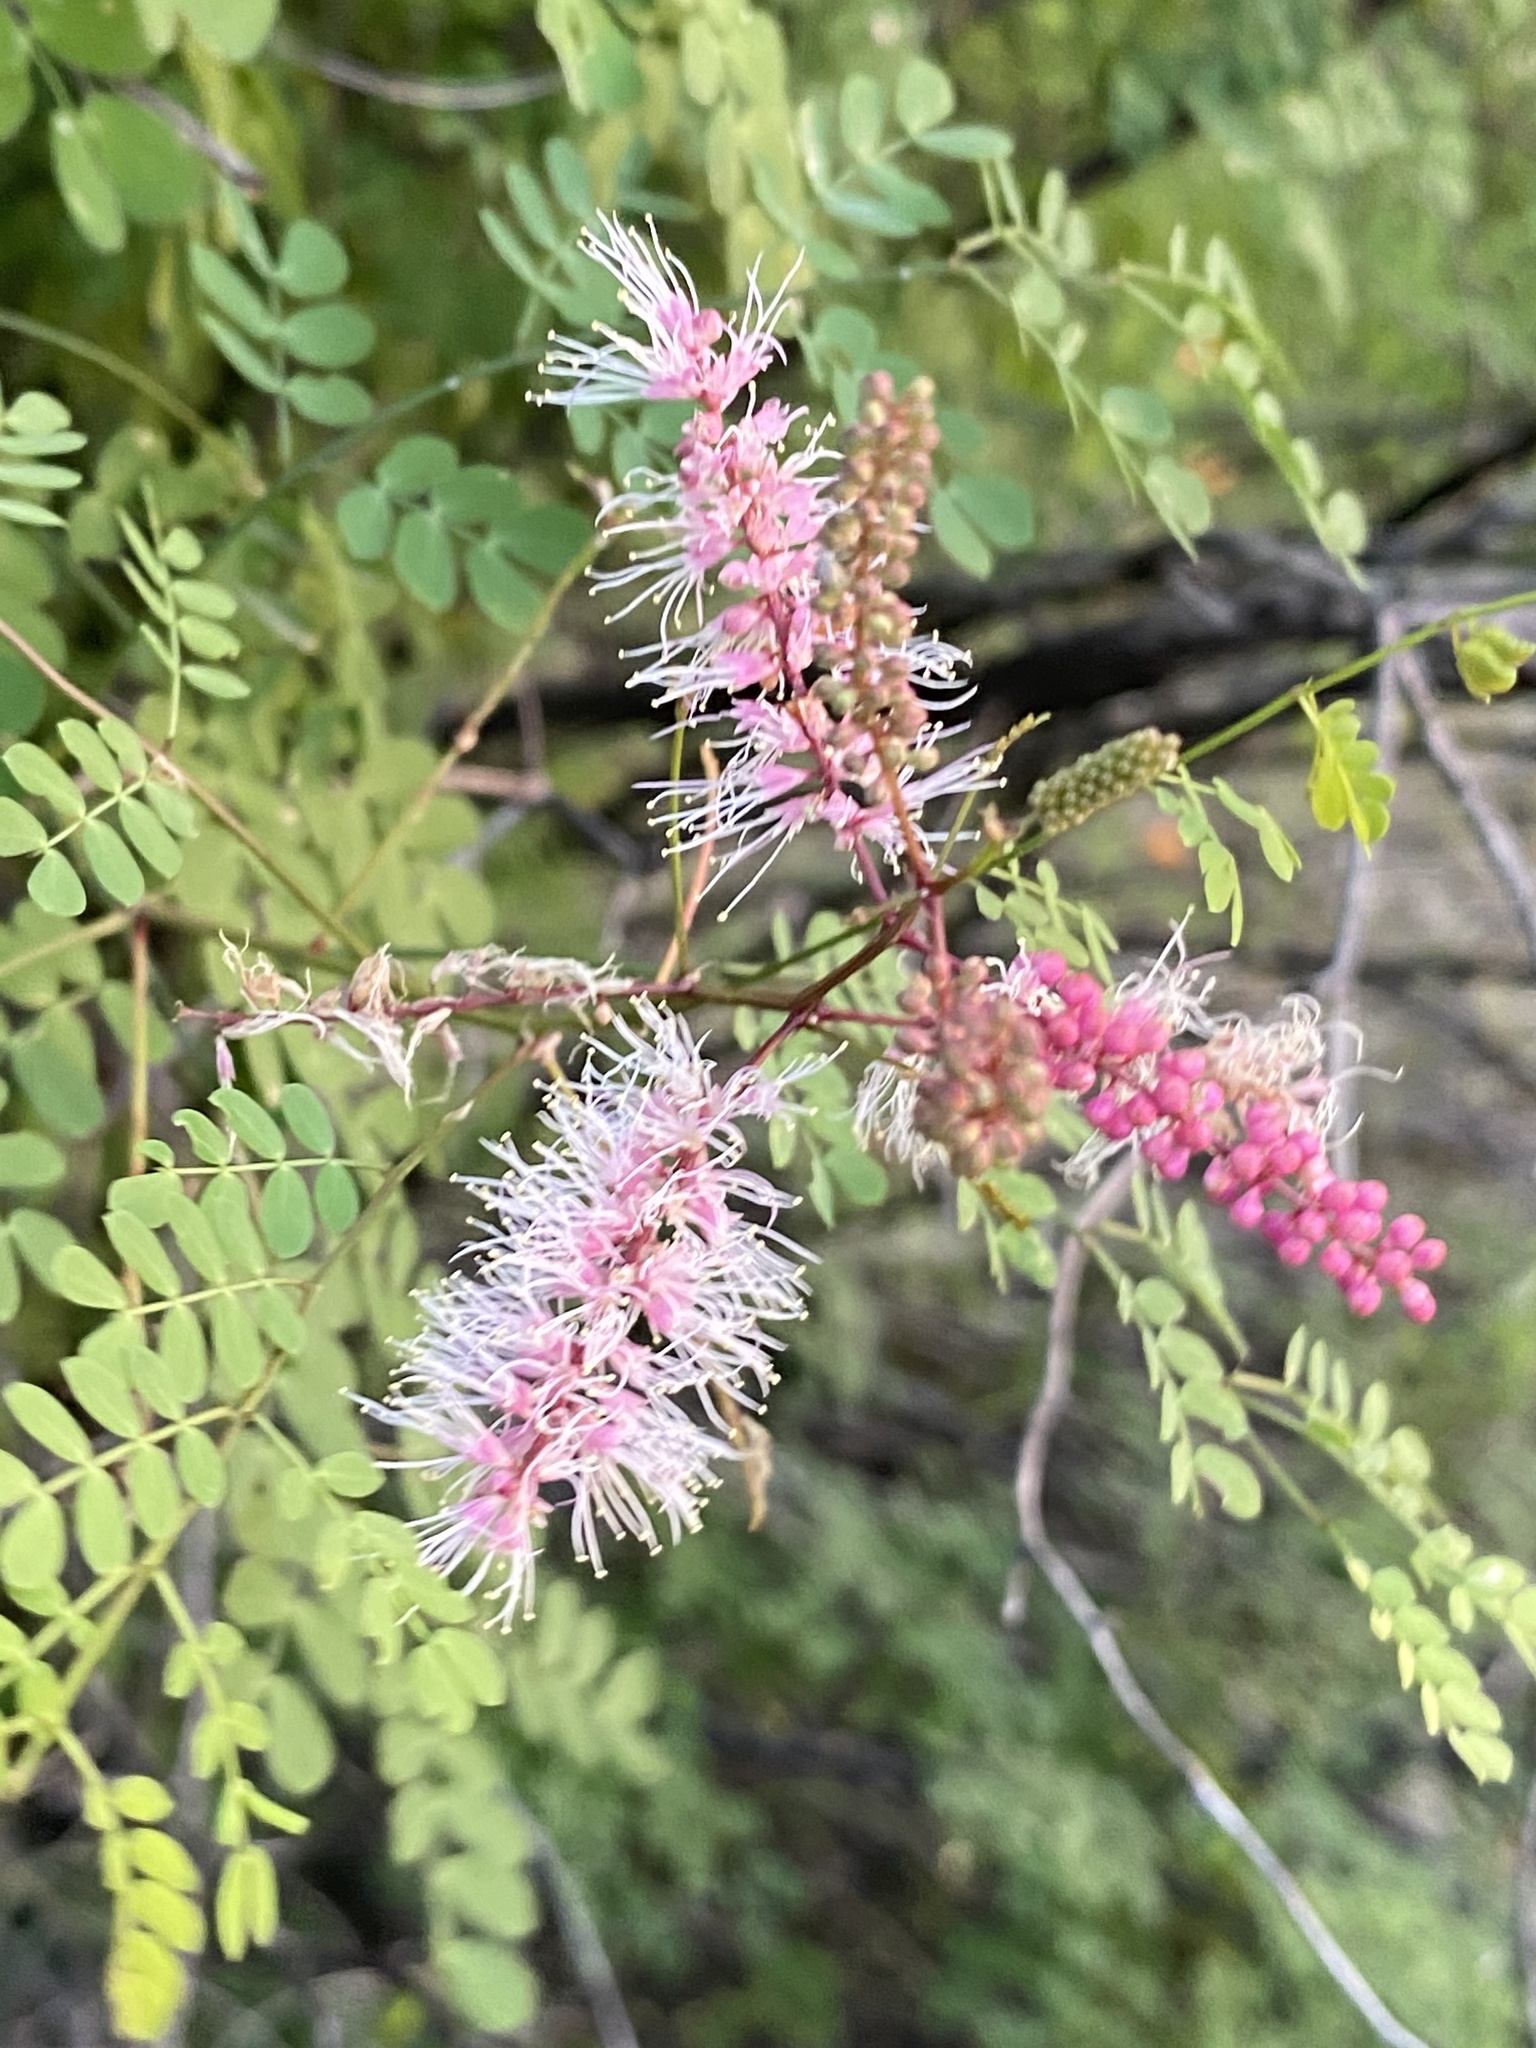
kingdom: Plantae
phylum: Tracheophyta
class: Magnoliopsida
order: Fabales
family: Fabaceae
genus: Mimosa
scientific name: Mimosa distachya
